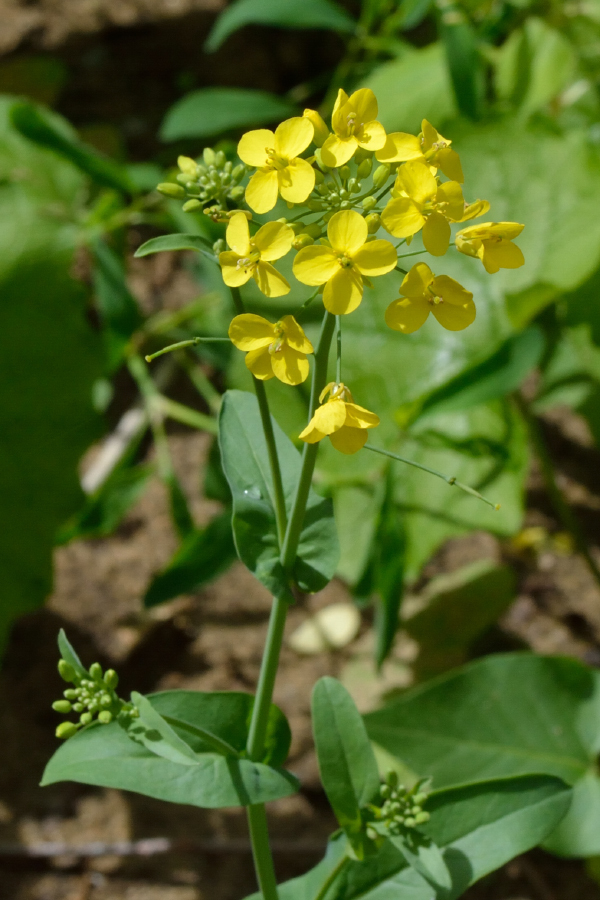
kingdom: Plantae
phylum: Tracheophyta
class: Magnoliopsida
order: Brassicales
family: Brassicaceae
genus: Brassica
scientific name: Brassica rapa
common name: Field mustard
